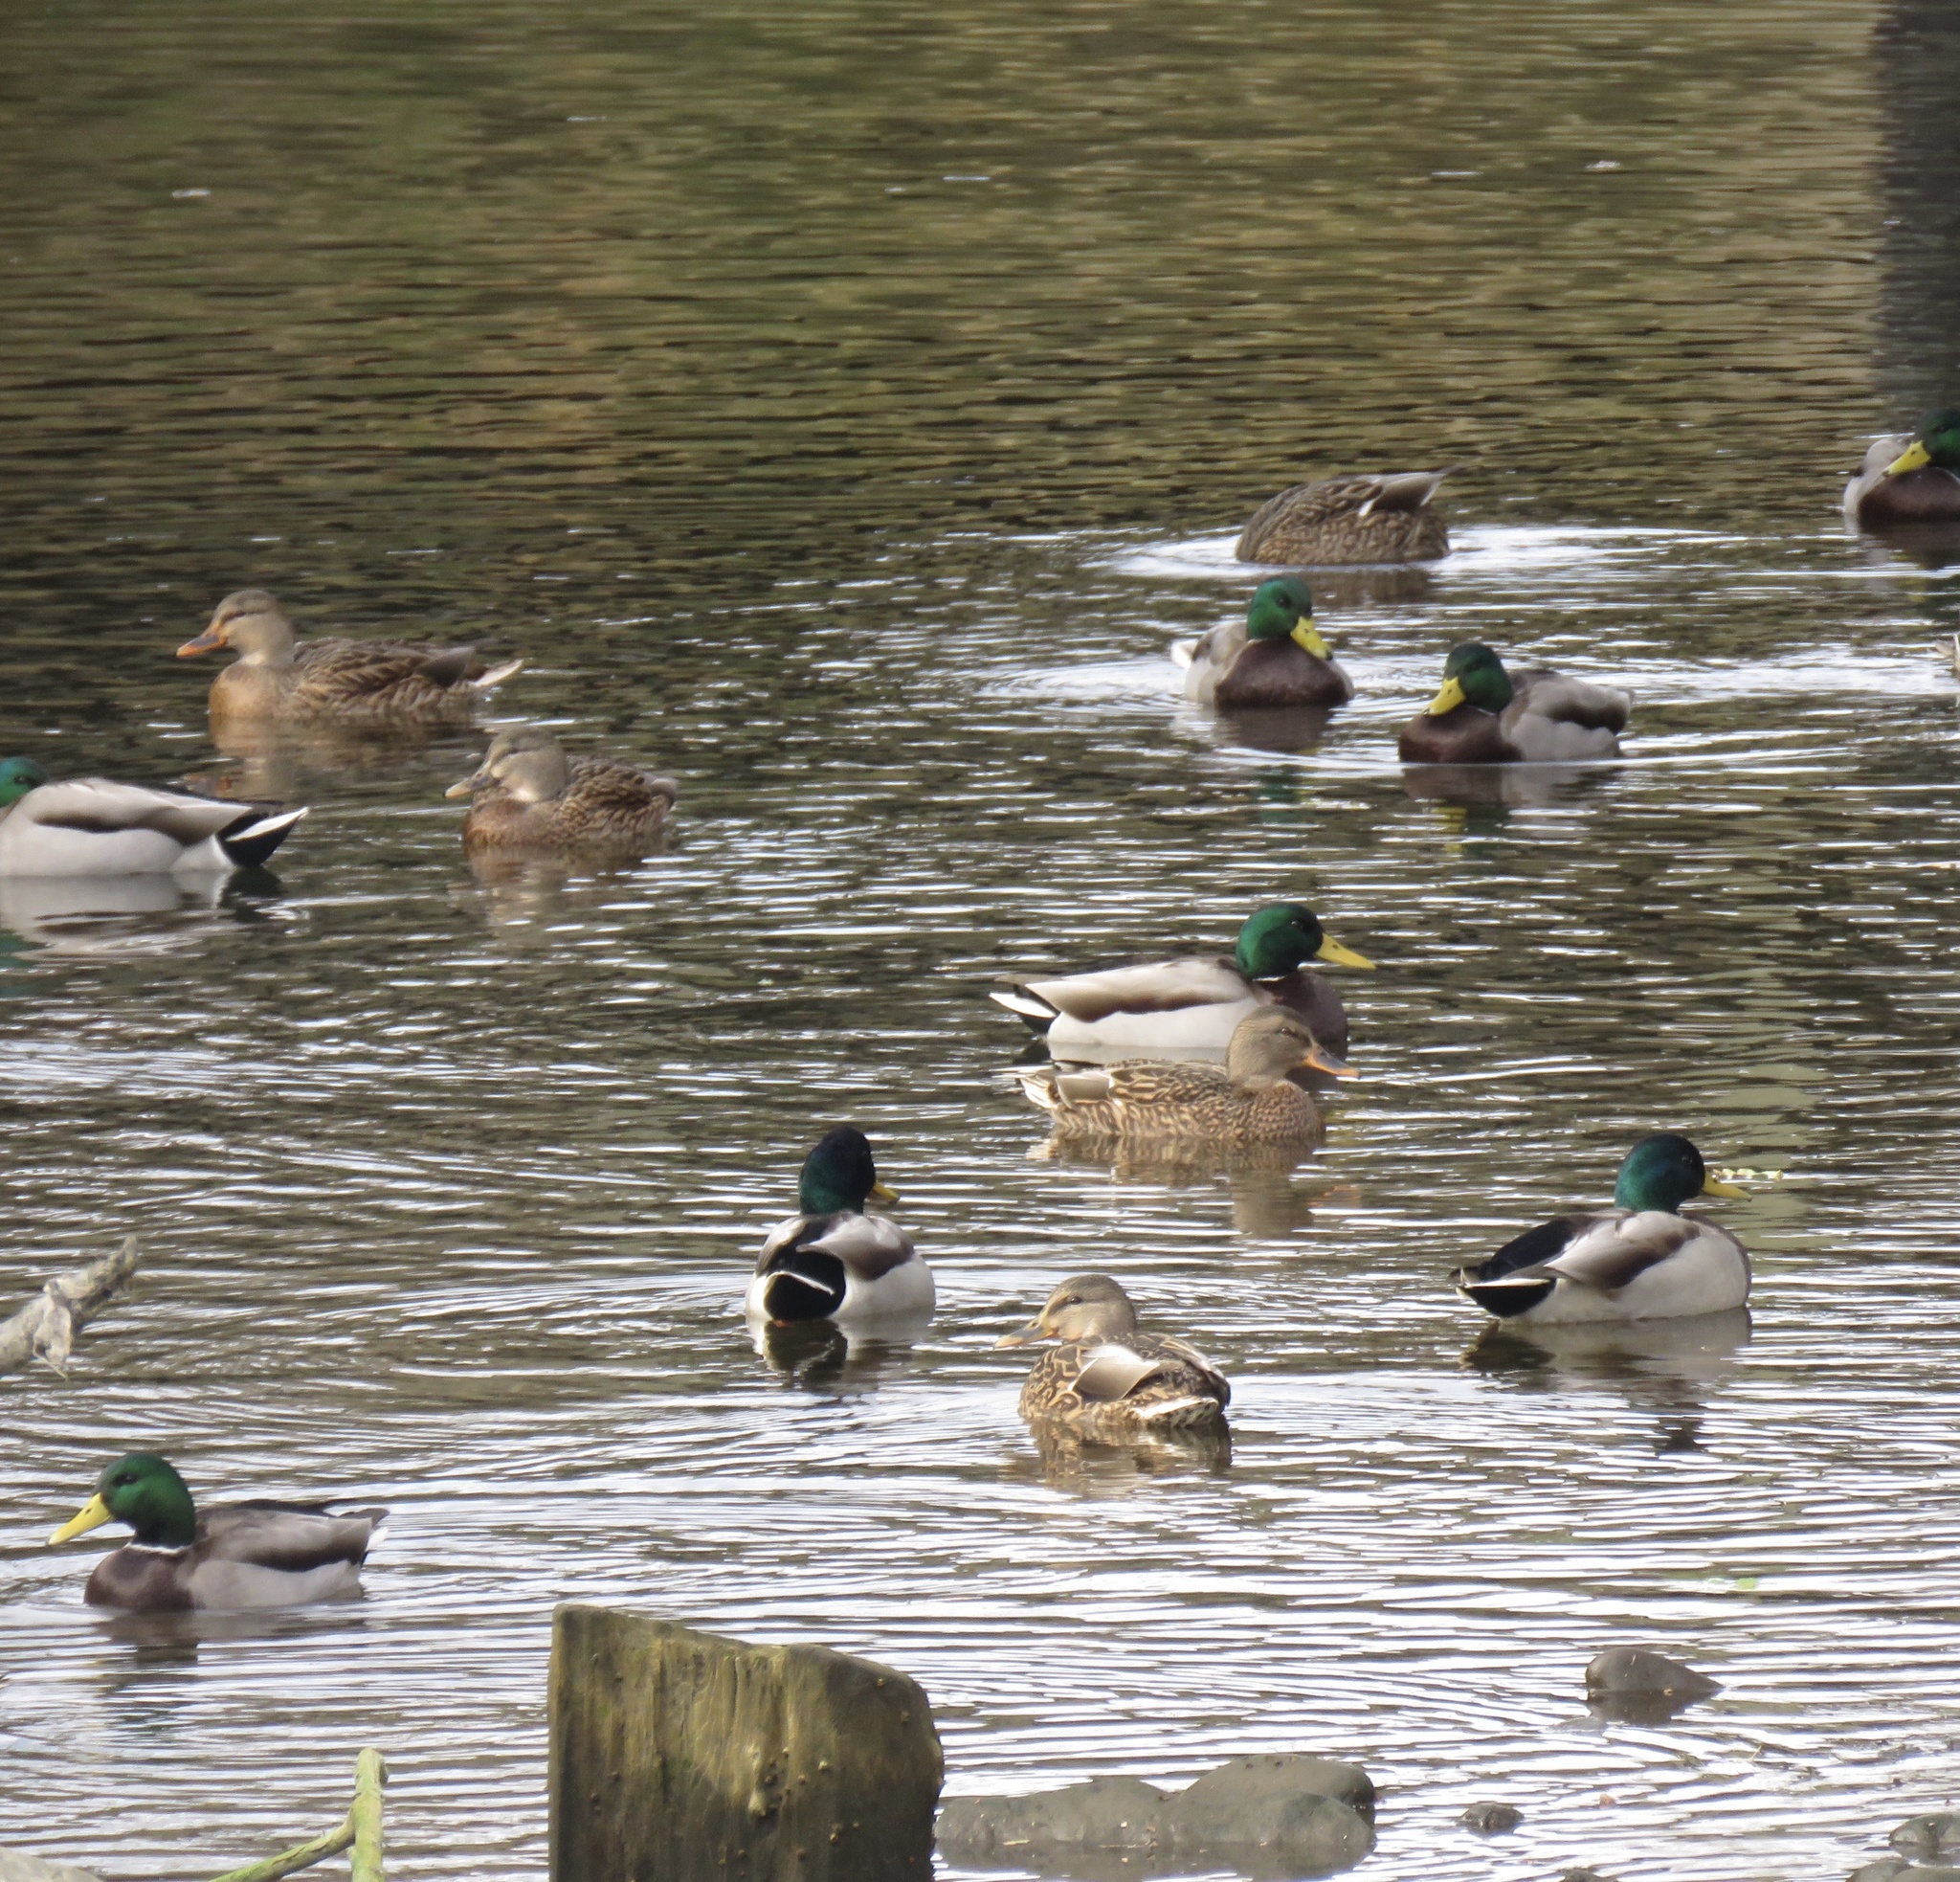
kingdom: Animalia
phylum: Chordata
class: Aves
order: Anseriformes
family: Anatidae
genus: Anas
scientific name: Anas platyrhynchos
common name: Mallard
